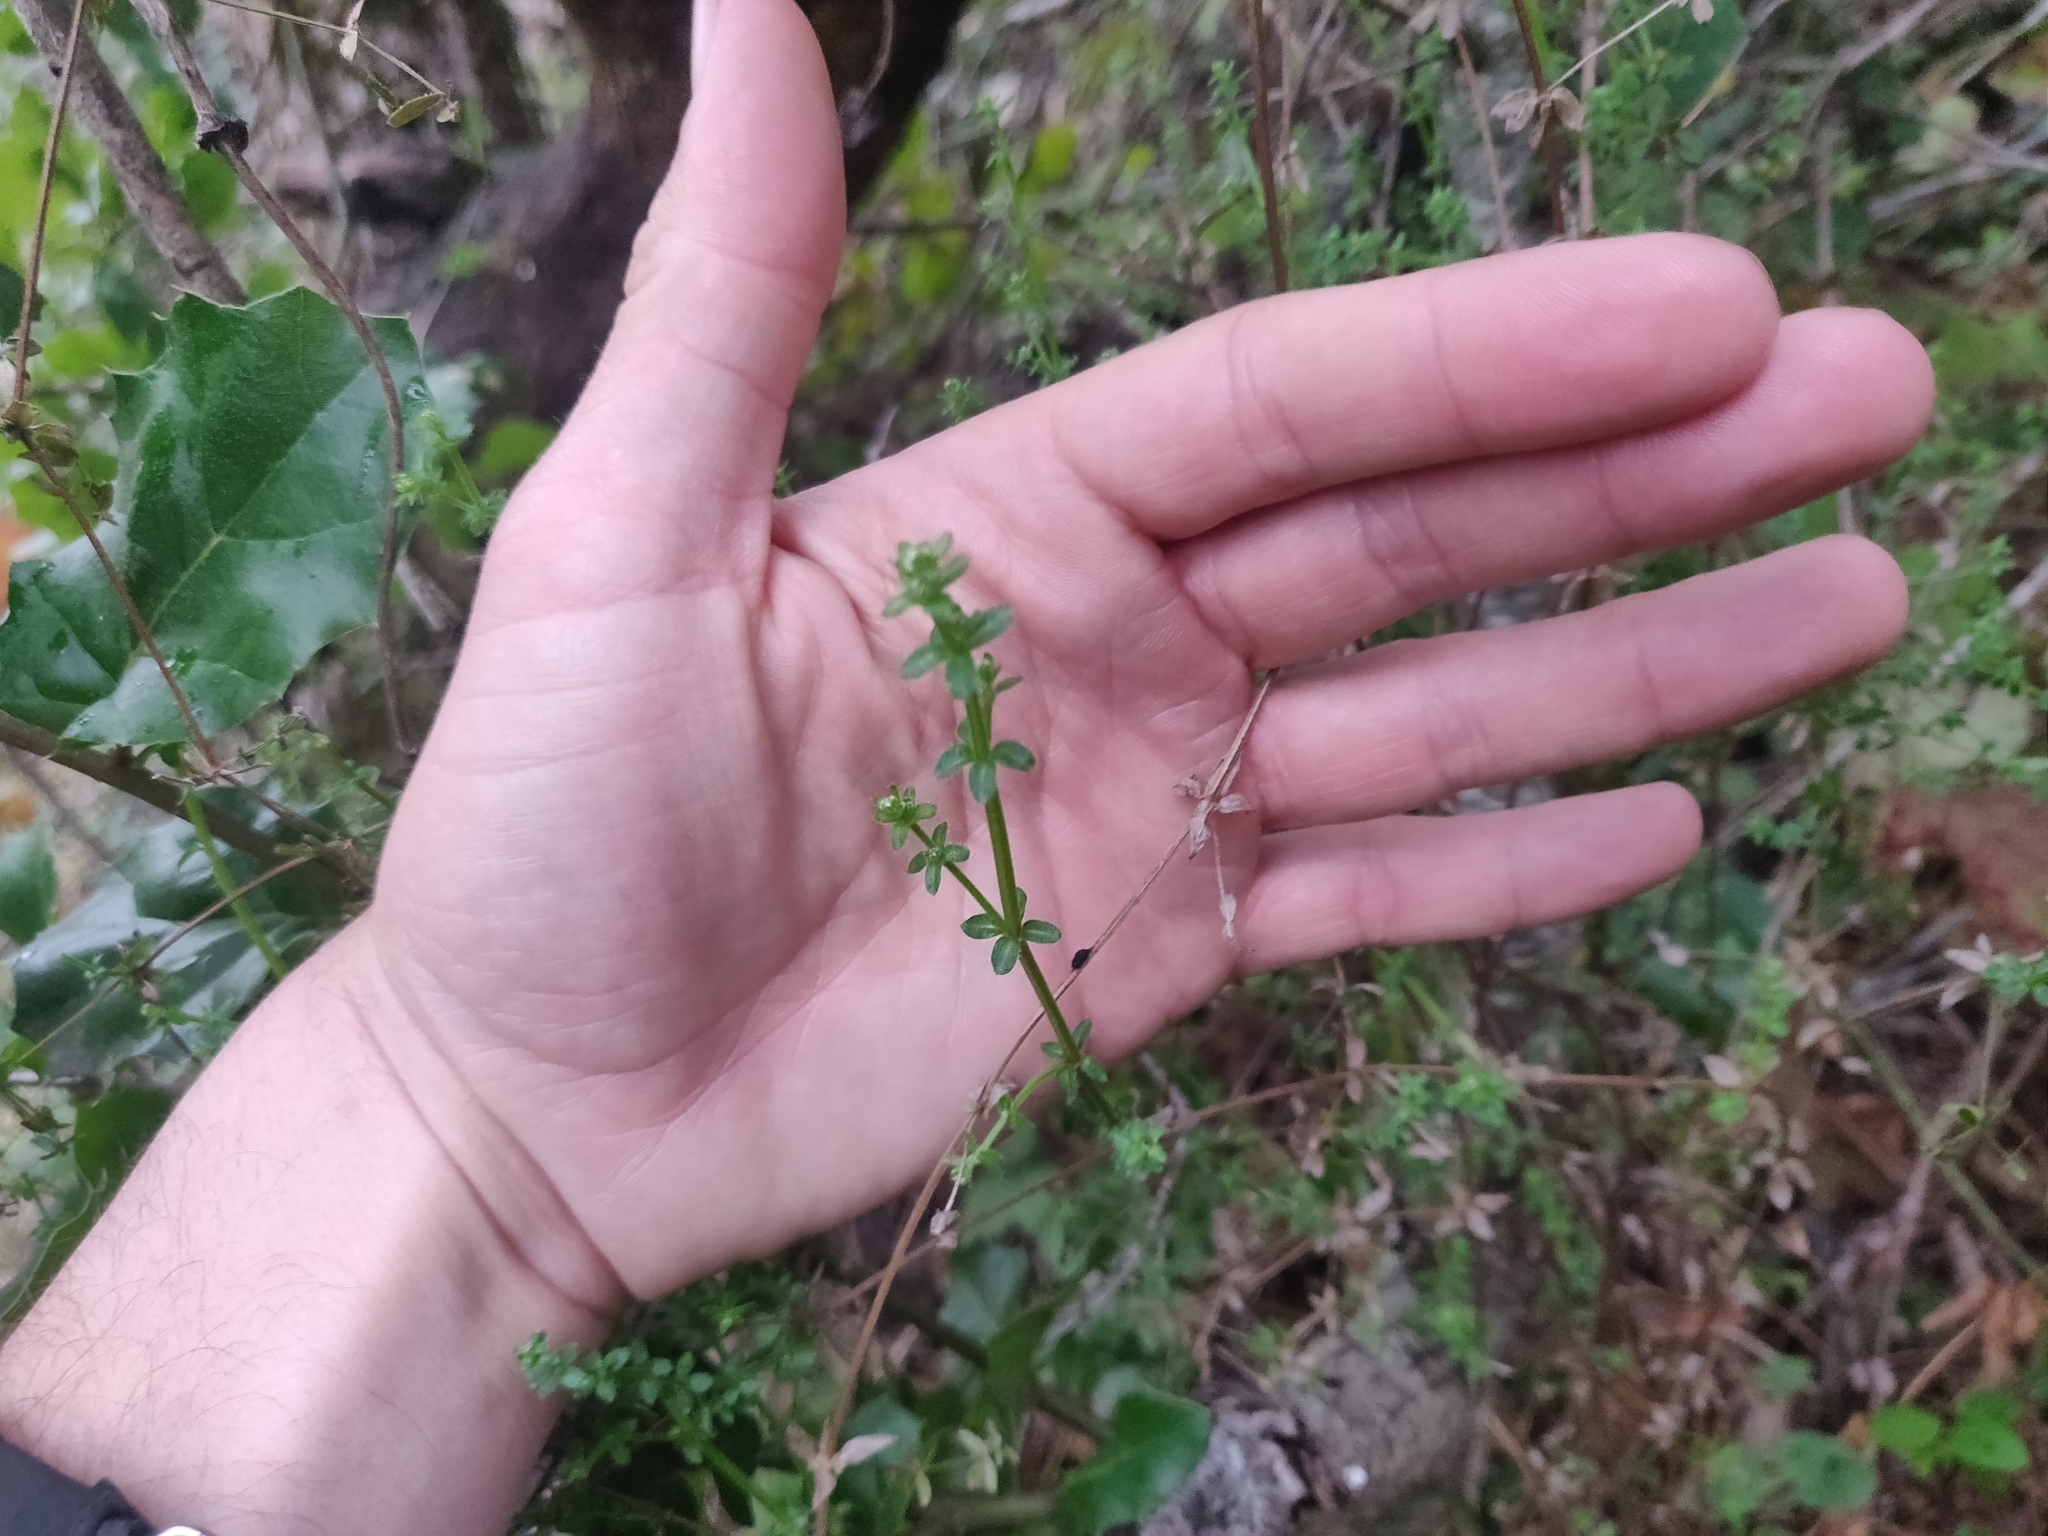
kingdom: Plantae
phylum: Tracheophyta
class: Magnoliopsida
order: Gentianales
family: Rubiaceae
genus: Galium
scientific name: Galium porrigens
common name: Climbing bedstraw
